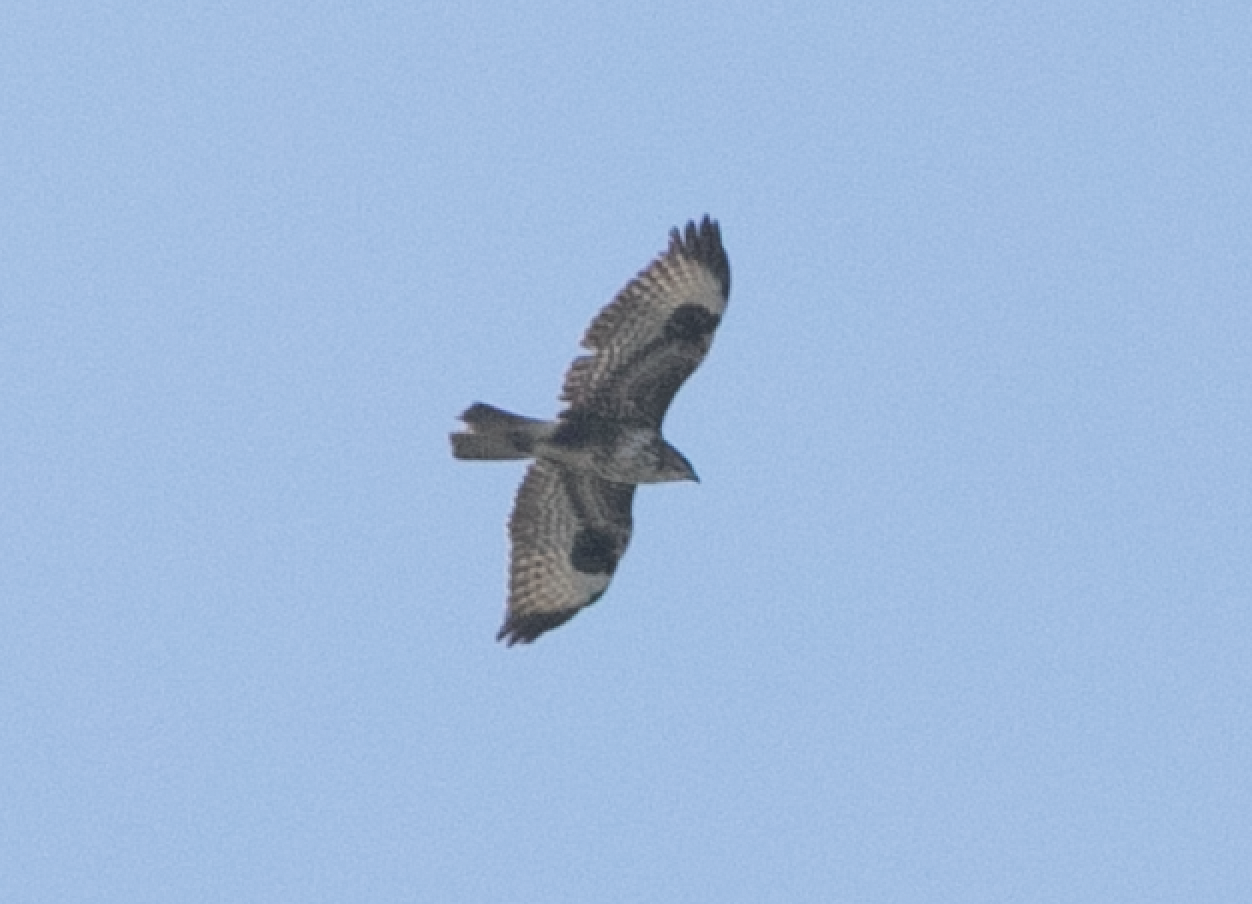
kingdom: Animalia
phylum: Chordata
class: Aves
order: Accipitriformes
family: Accipitridae
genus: Buteo
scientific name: Buteo buteo
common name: Common buzzard
